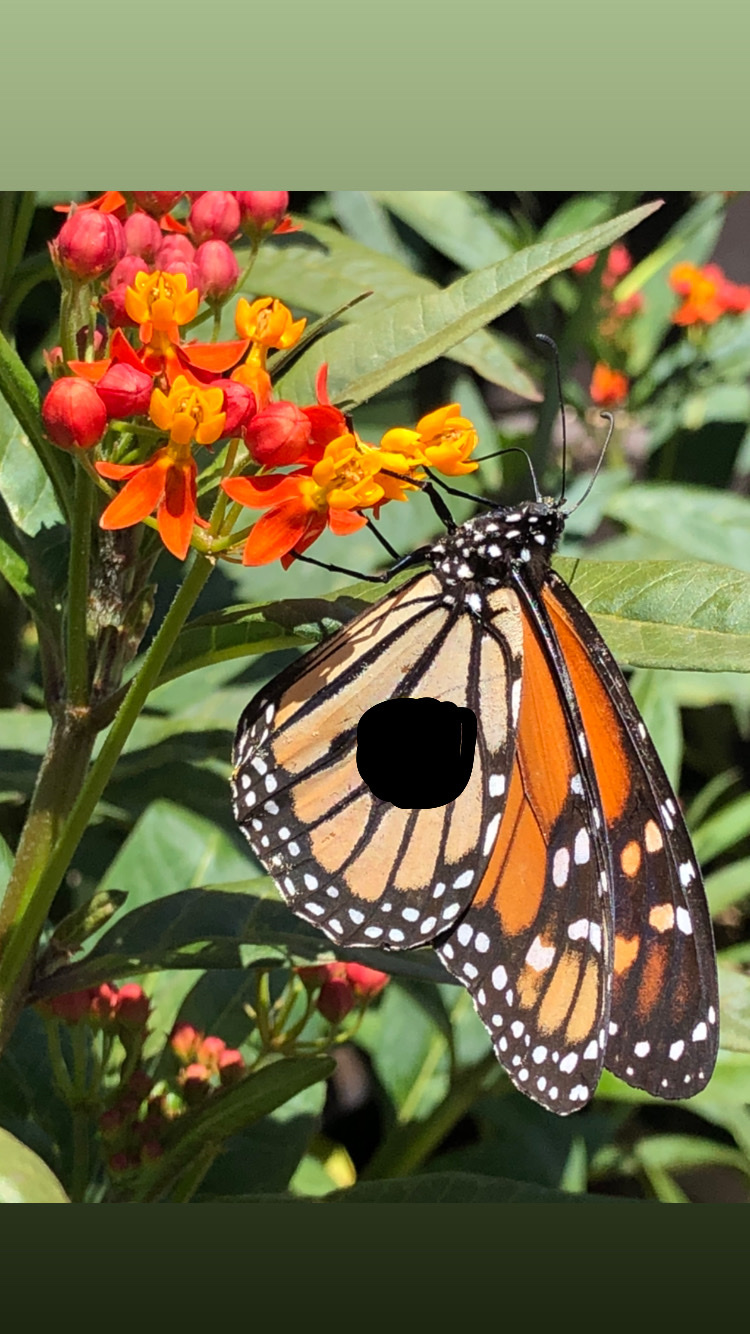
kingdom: Animalia
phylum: Arthropoda
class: Insecta
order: Lepidoptera
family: Nymphalidae
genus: Danaus
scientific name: Danaus plexippus
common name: Monarch
